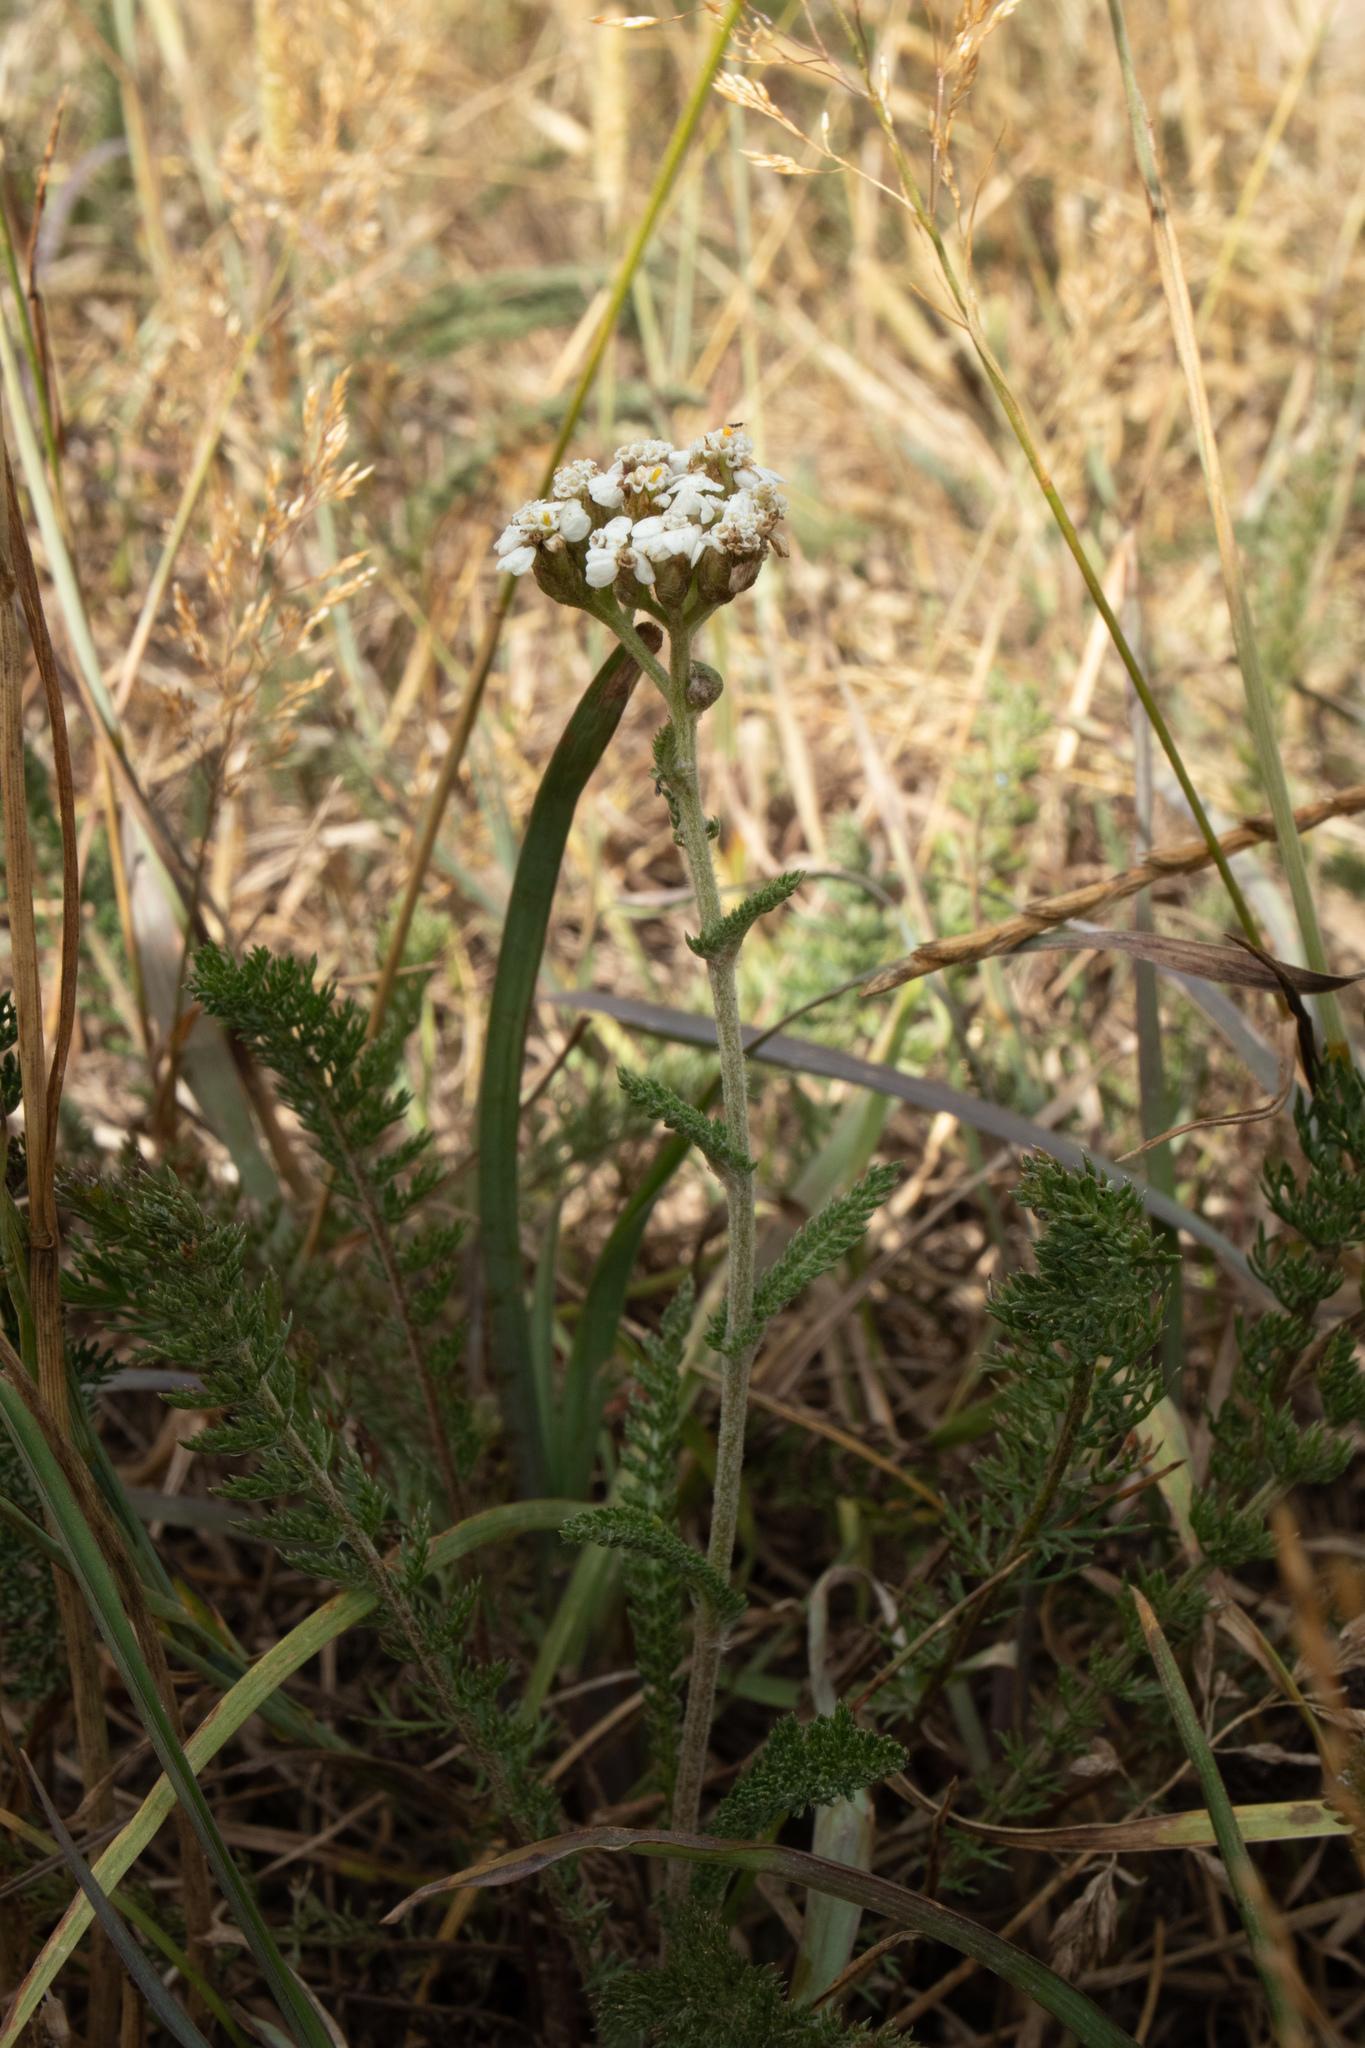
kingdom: Plantae
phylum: Tracheophyta
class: Magnoliopsida
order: Asterales
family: Asteraceae
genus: Achillea
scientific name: Achillea millefolium
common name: Yarrow
